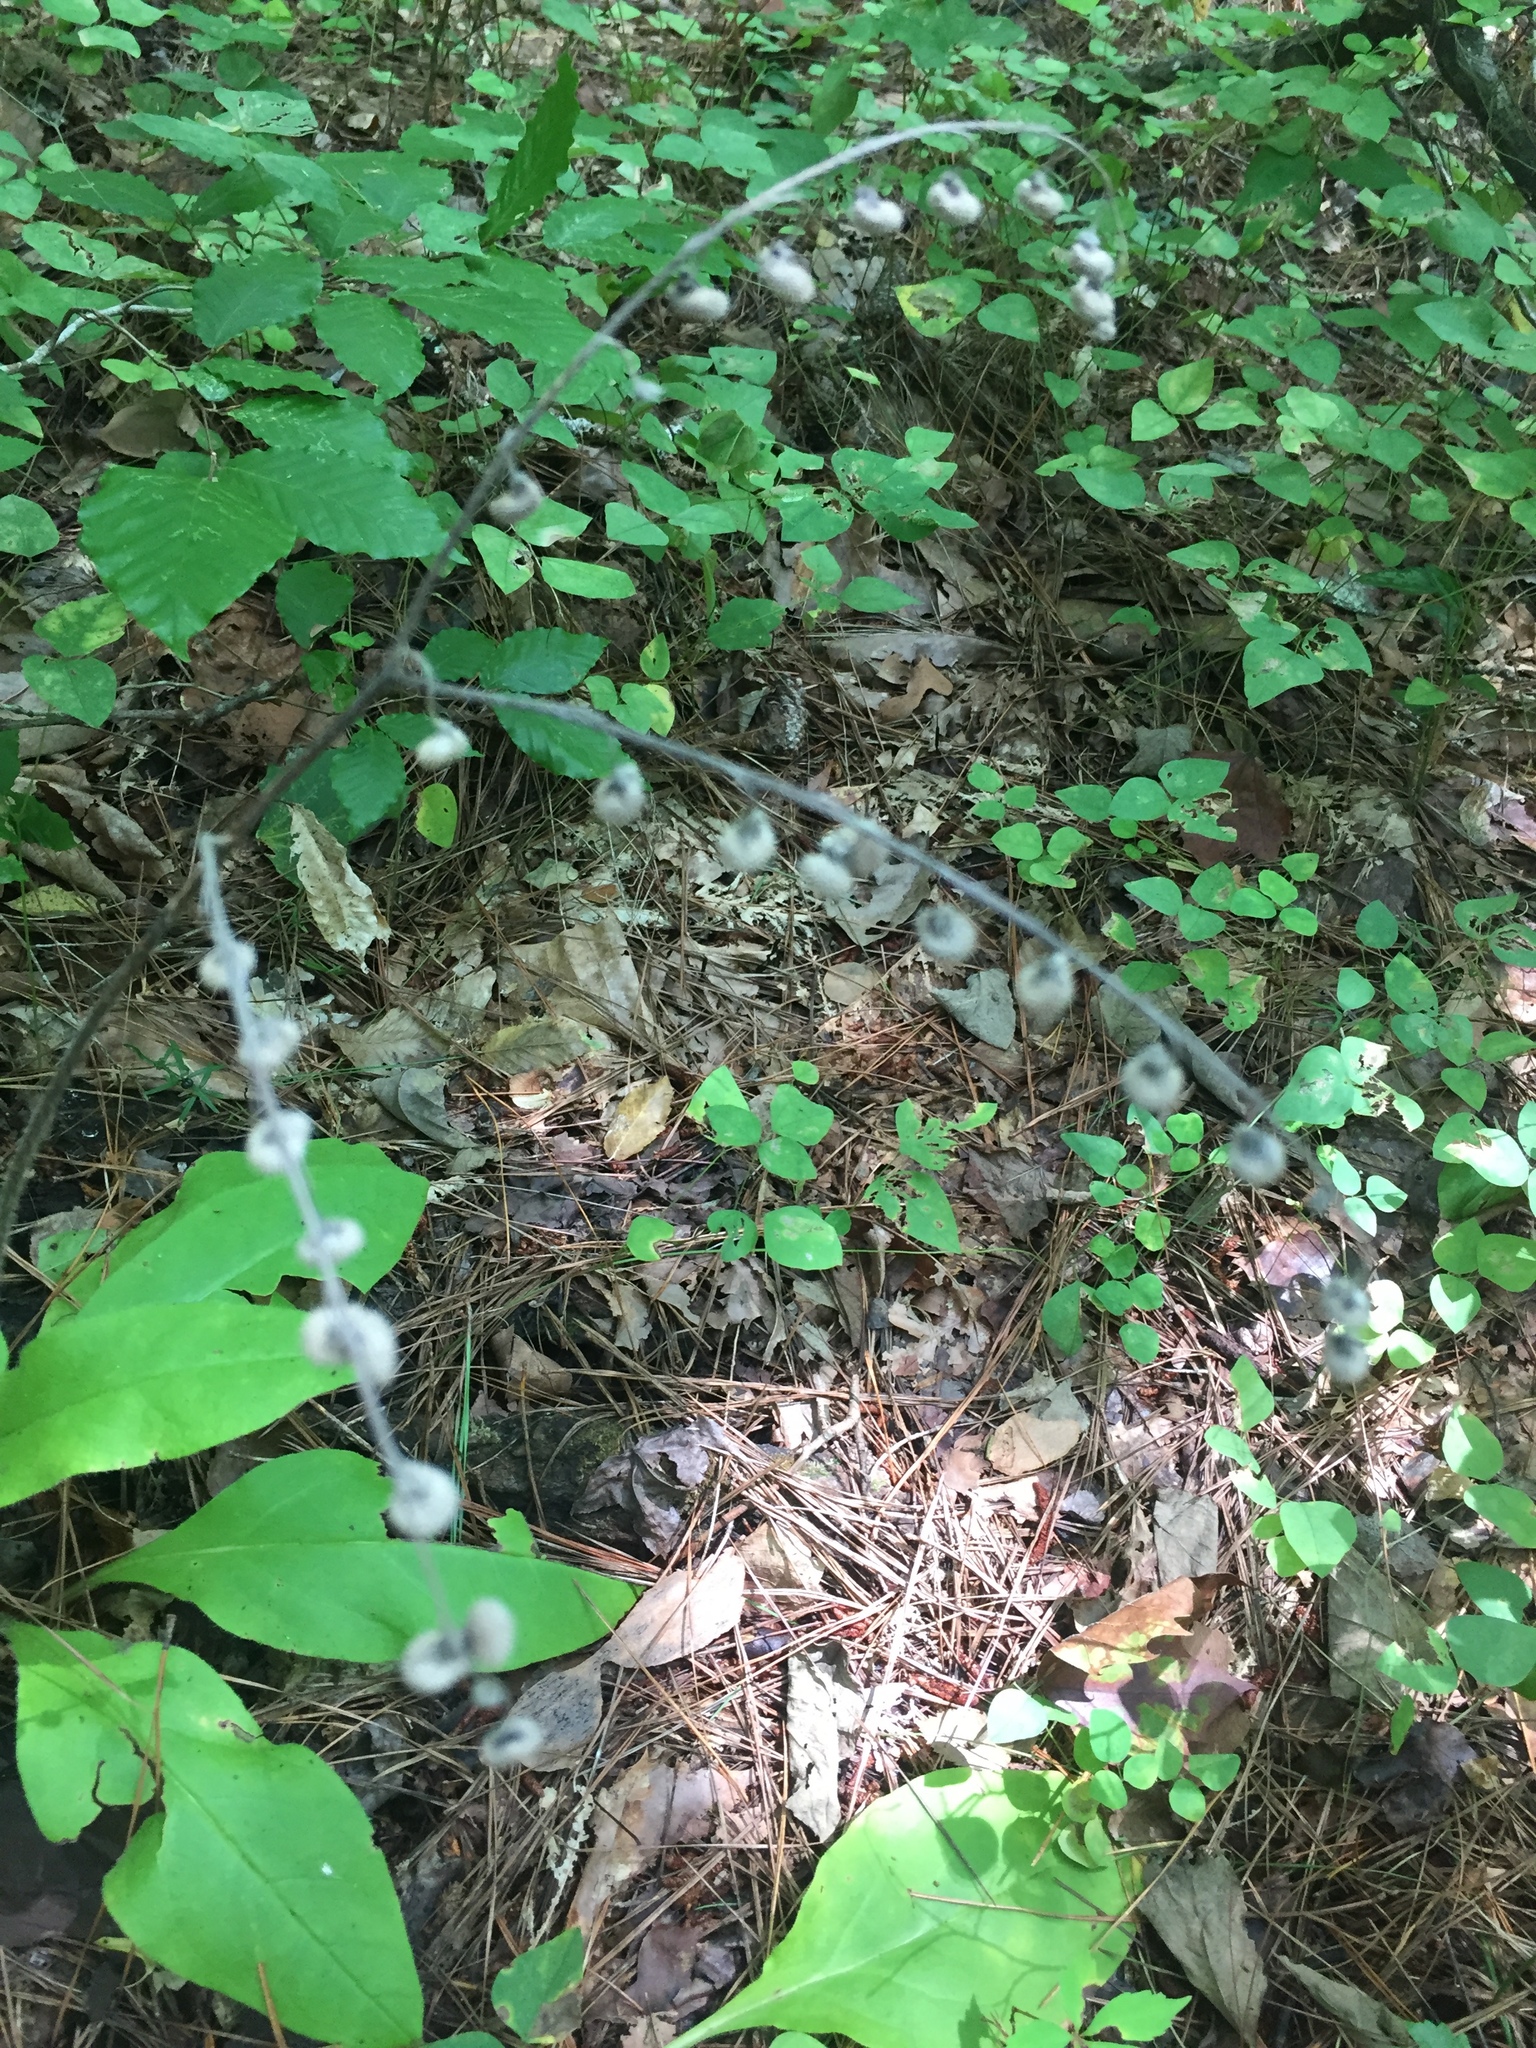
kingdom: Plantae
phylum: Tracheophyta
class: Magnoliopsida
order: Boraginales
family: Boraginaceae
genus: Andersonglossum
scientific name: Andersonglossum virginianum
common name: Wild comfrey
